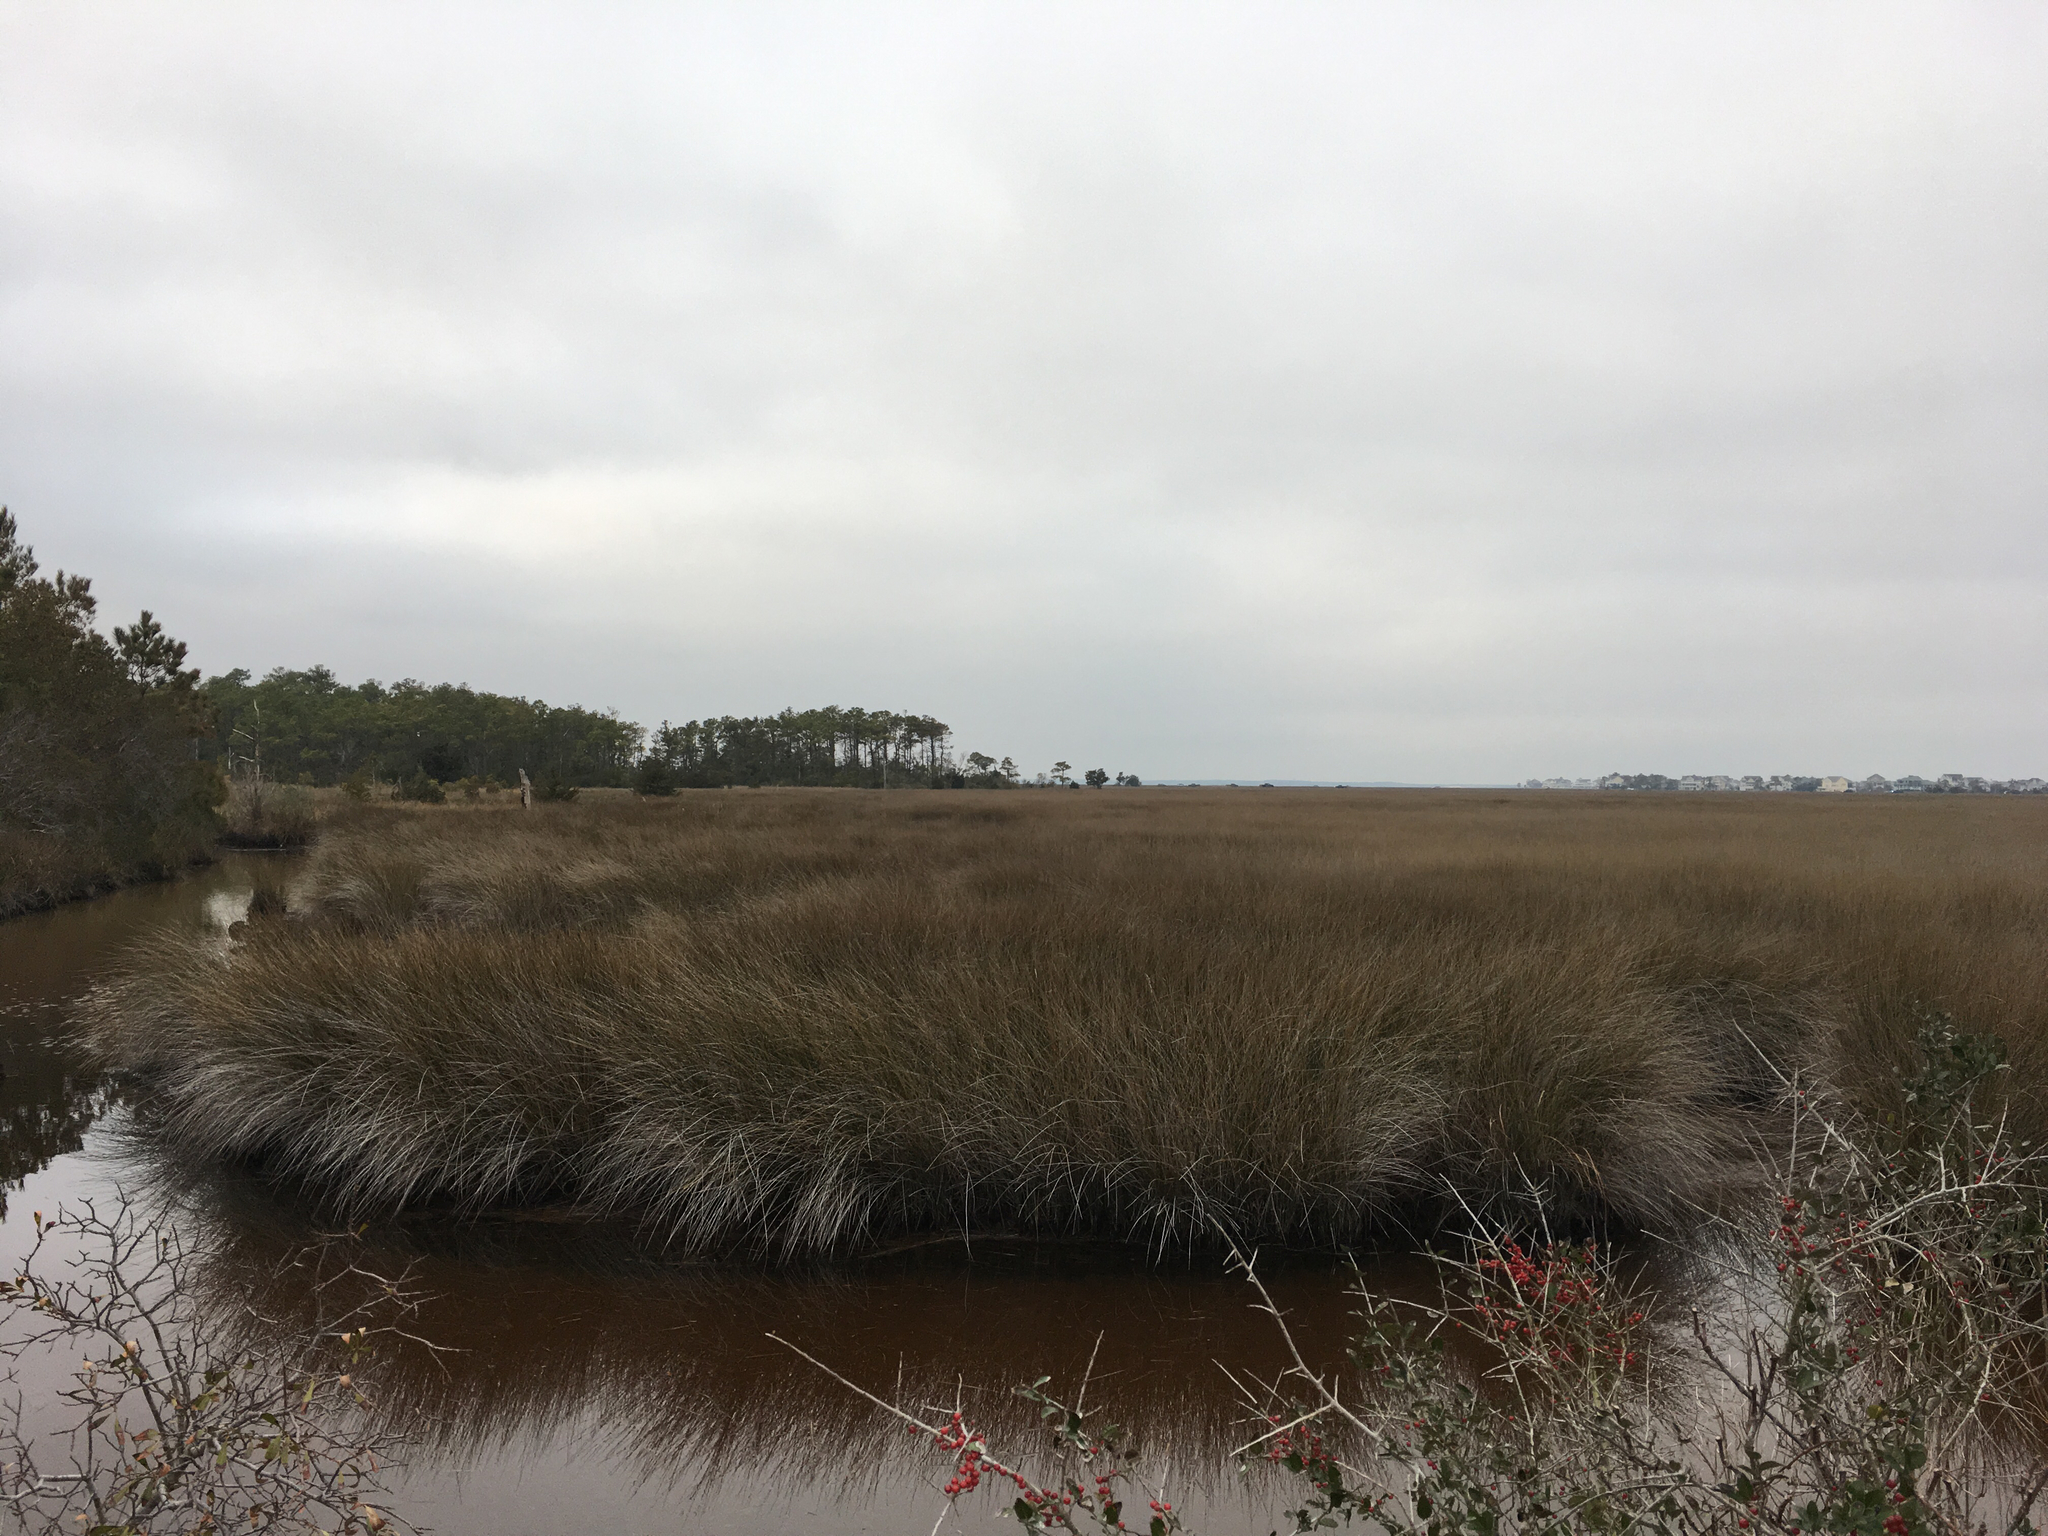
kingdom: Plantae
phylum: Tracheophyta
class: Liliopsida
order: Poales
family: Juncaceae
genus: Juncus
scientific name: Juncus roemerianus
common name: Roemer's rush
